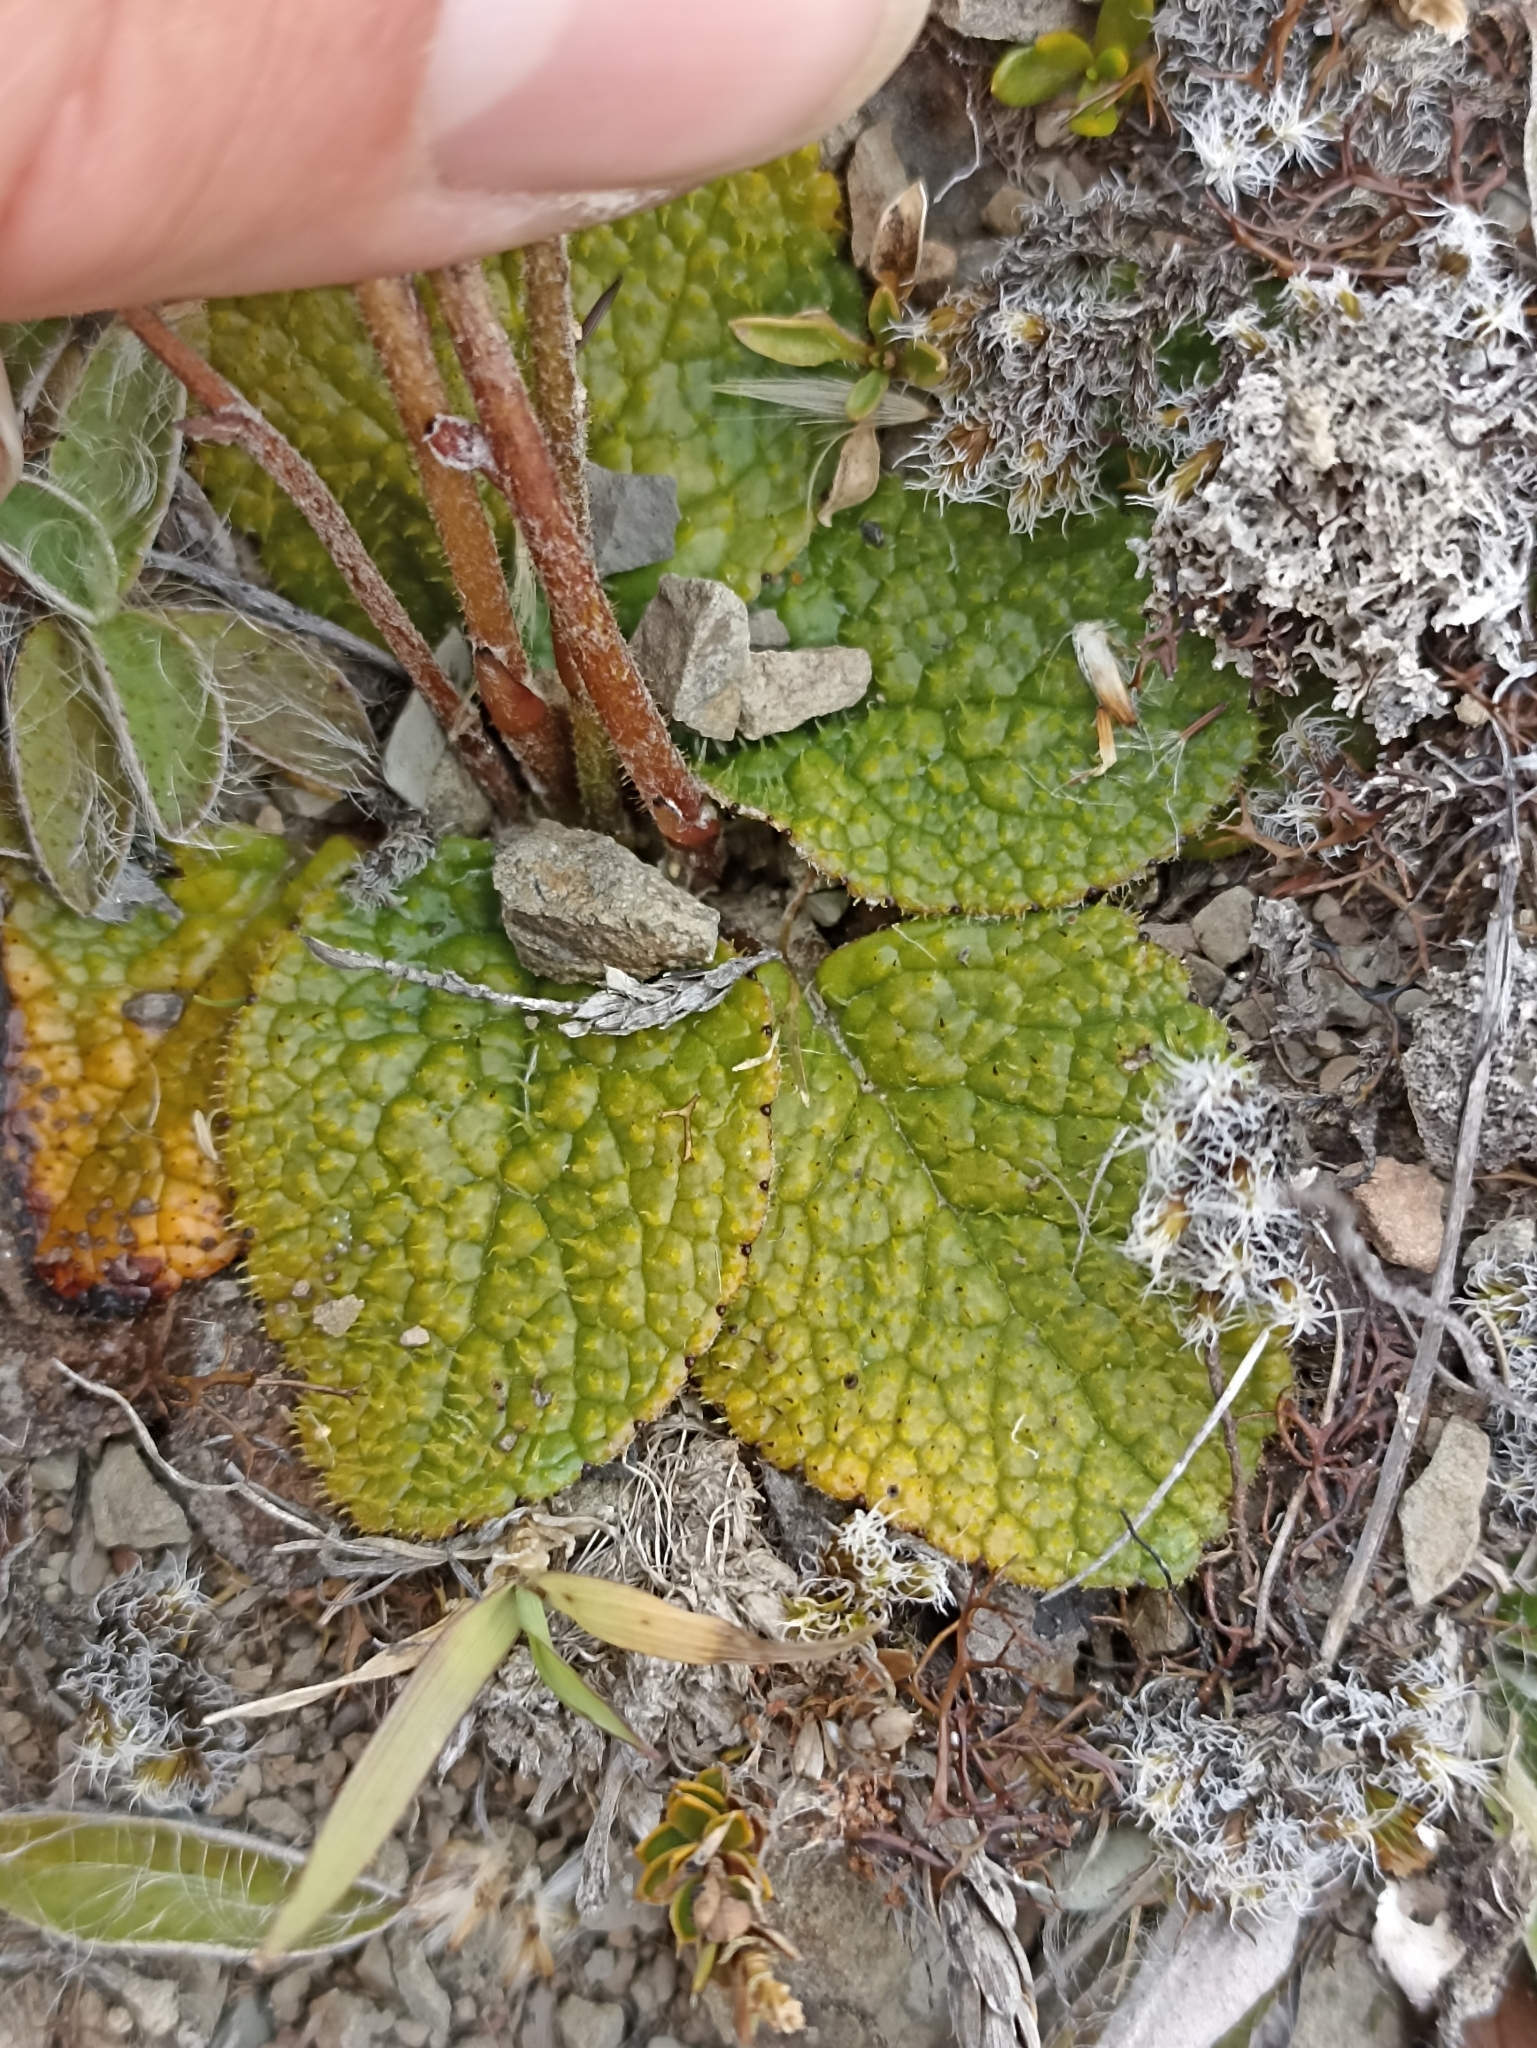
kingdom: Plantae
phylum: Tracheophyta
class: Magnoliopsida
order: Asterales
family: Asteraceae
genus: Brachyglottis
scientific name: Brachyglottis bellidioides
